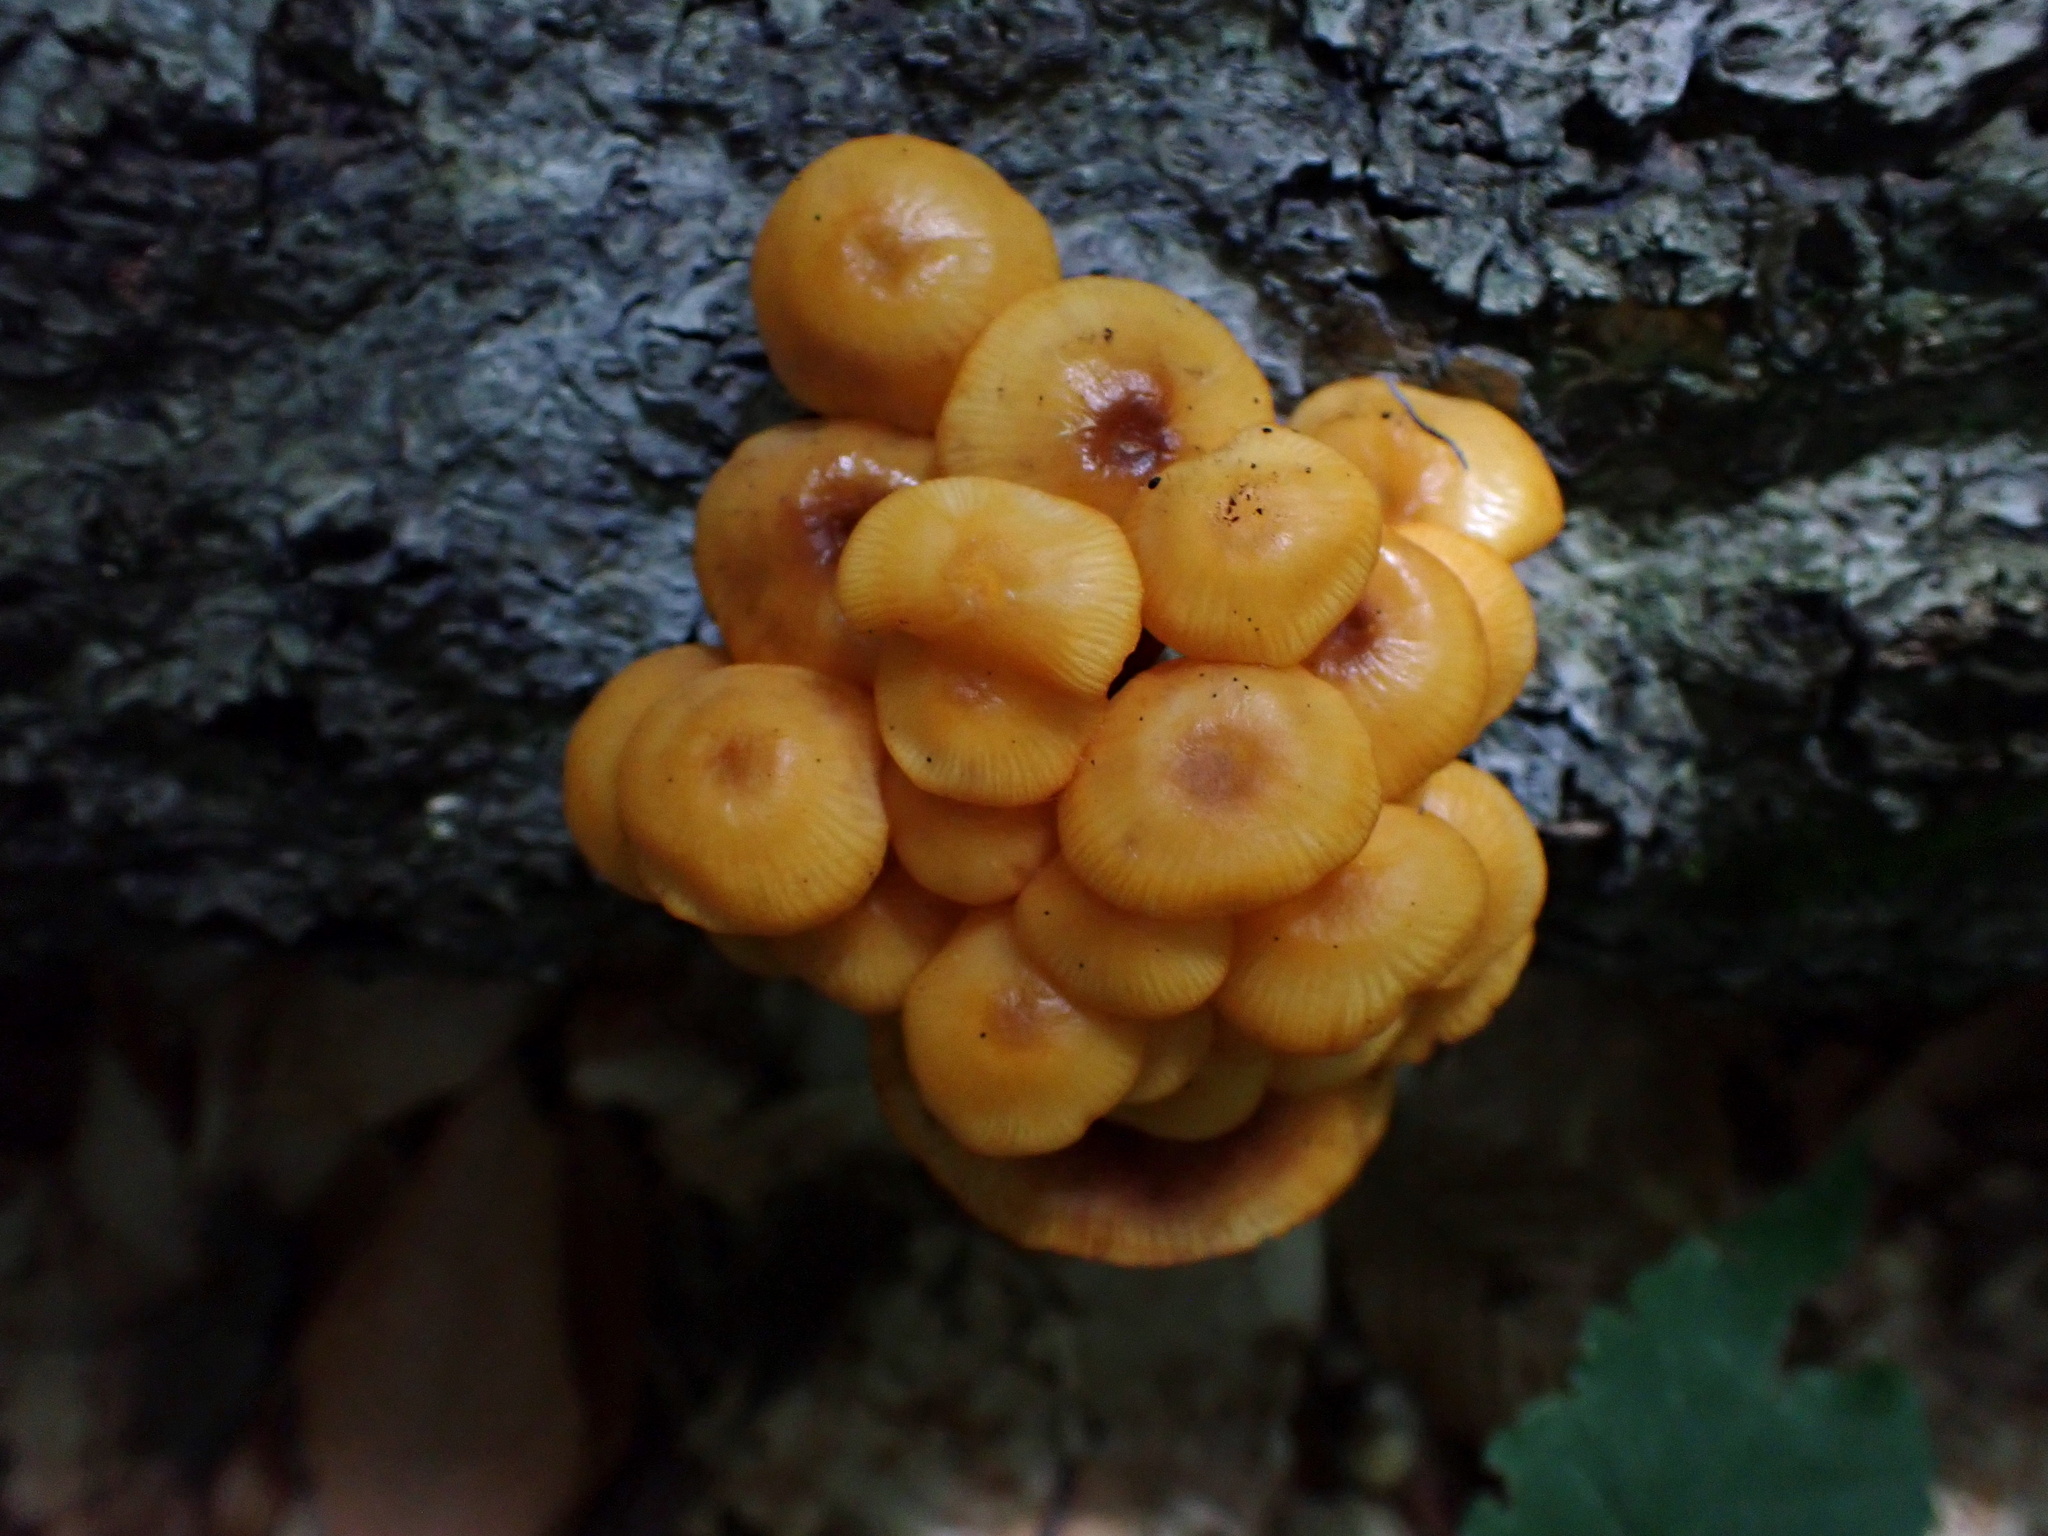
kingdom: Fungi
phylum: Basidiomycota
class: Agaricomycetes
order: Agaricales
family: Mycenaceae
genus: Mycena
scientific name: Mycena leaiana
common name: Orange mycena
